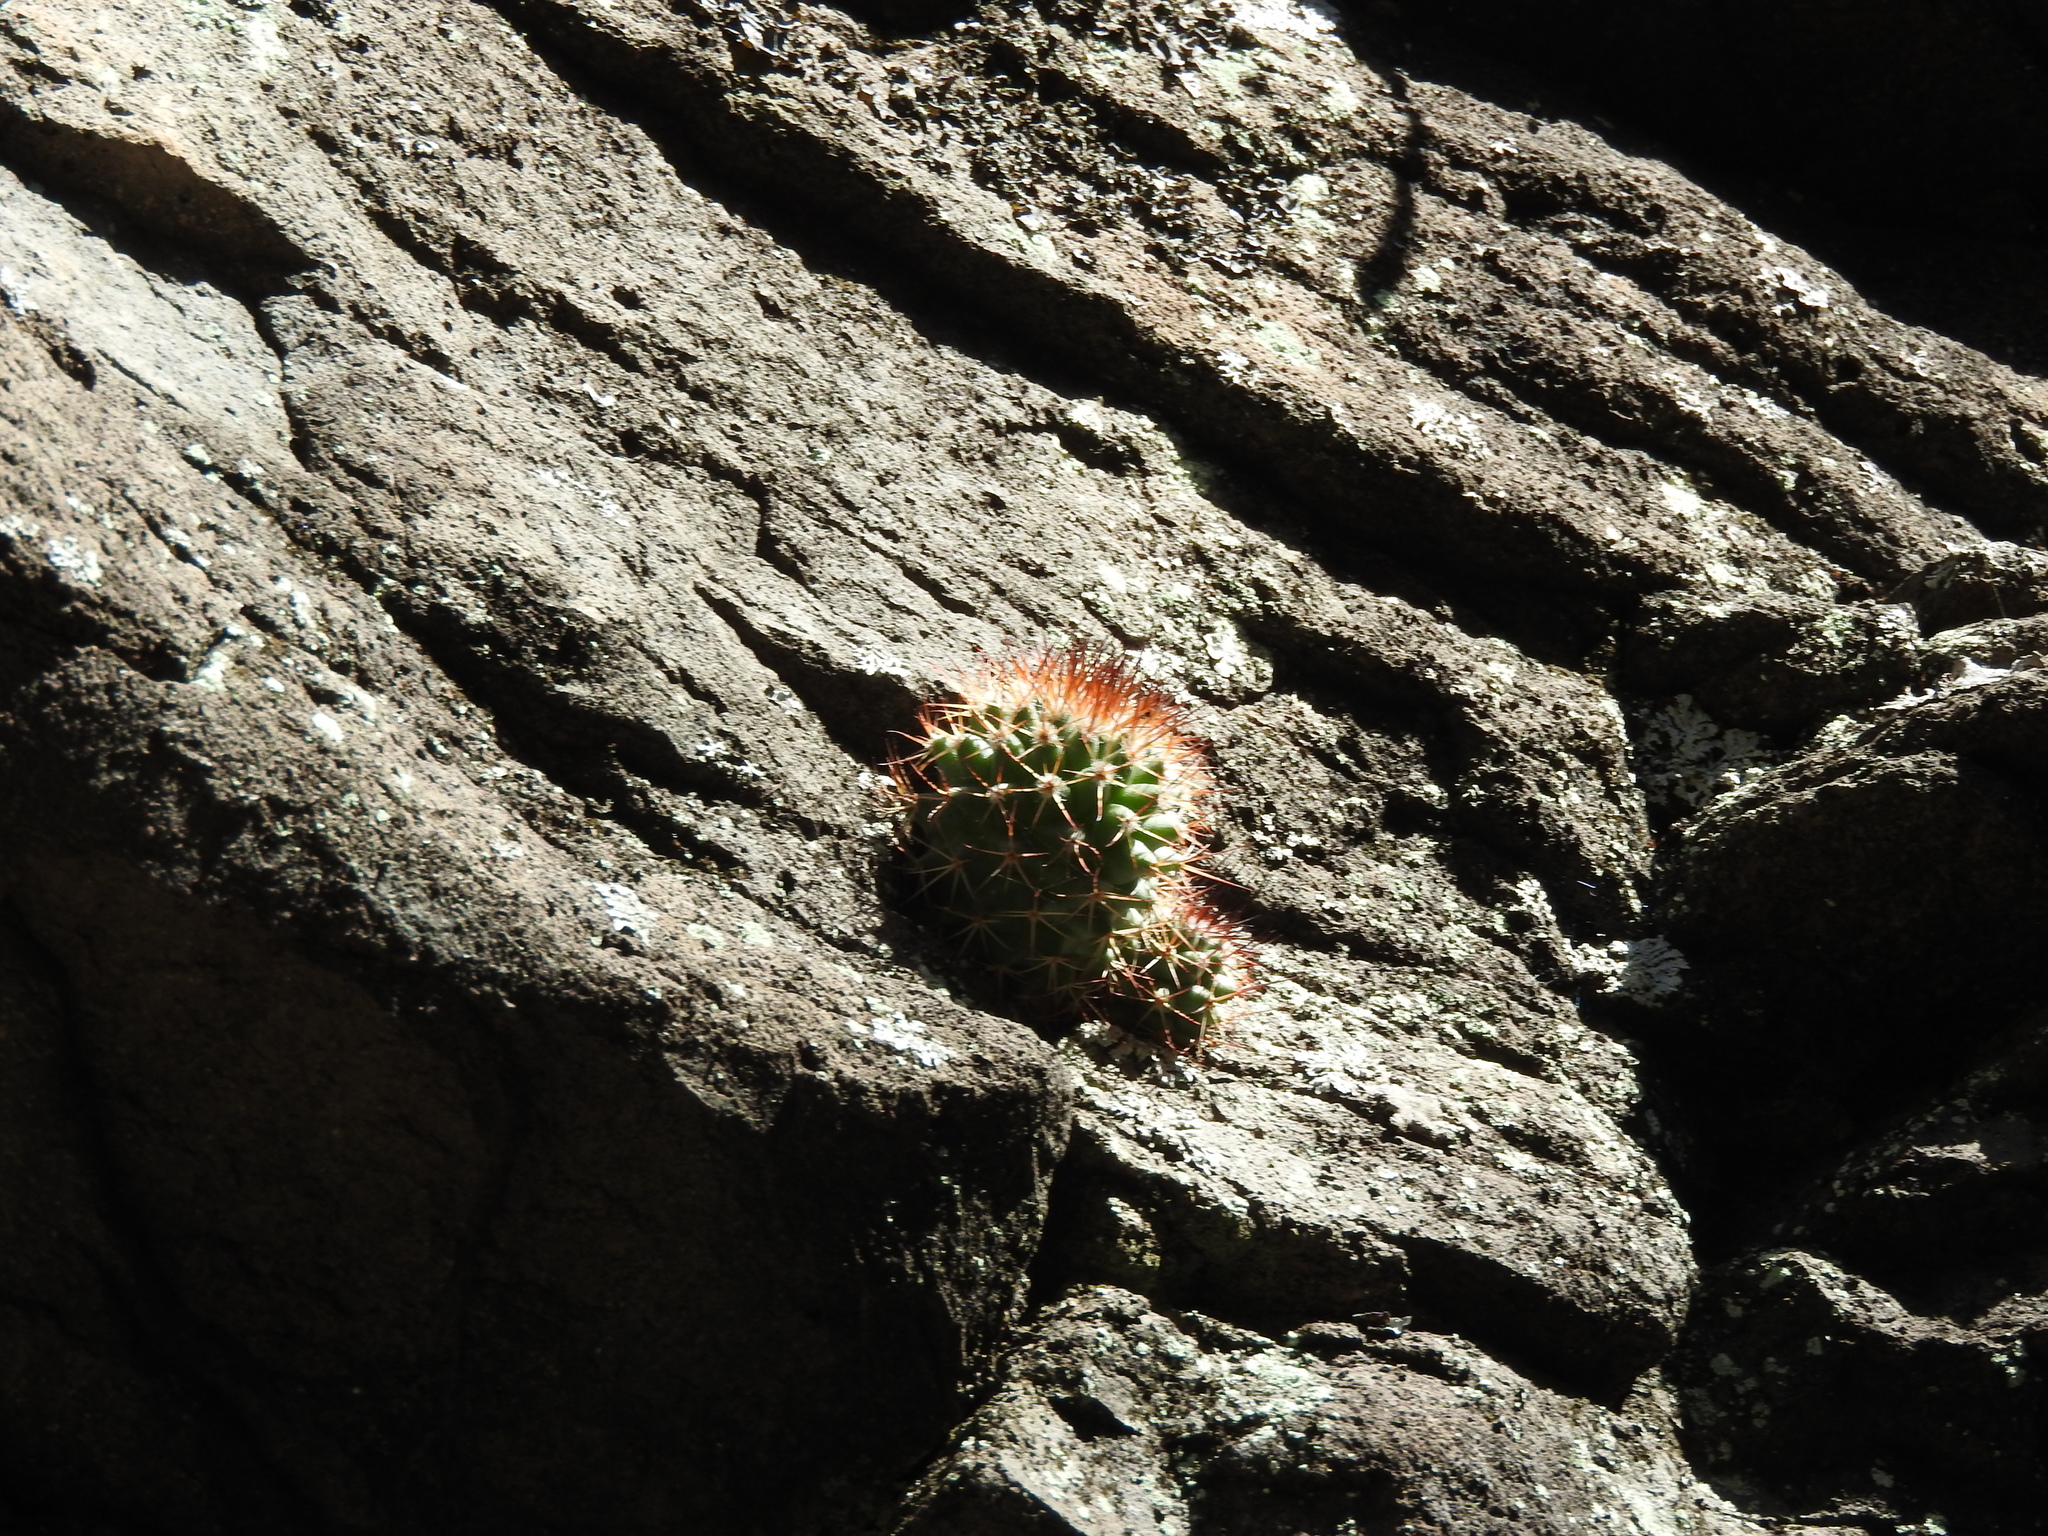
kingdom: Plantae
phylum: Tracheophyta
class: Magnoliopsida
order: Caryophyllales
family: Cactaceae
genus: Mammillaria
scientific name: Mammillaria rhodantha
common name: Rainbow pincushion
